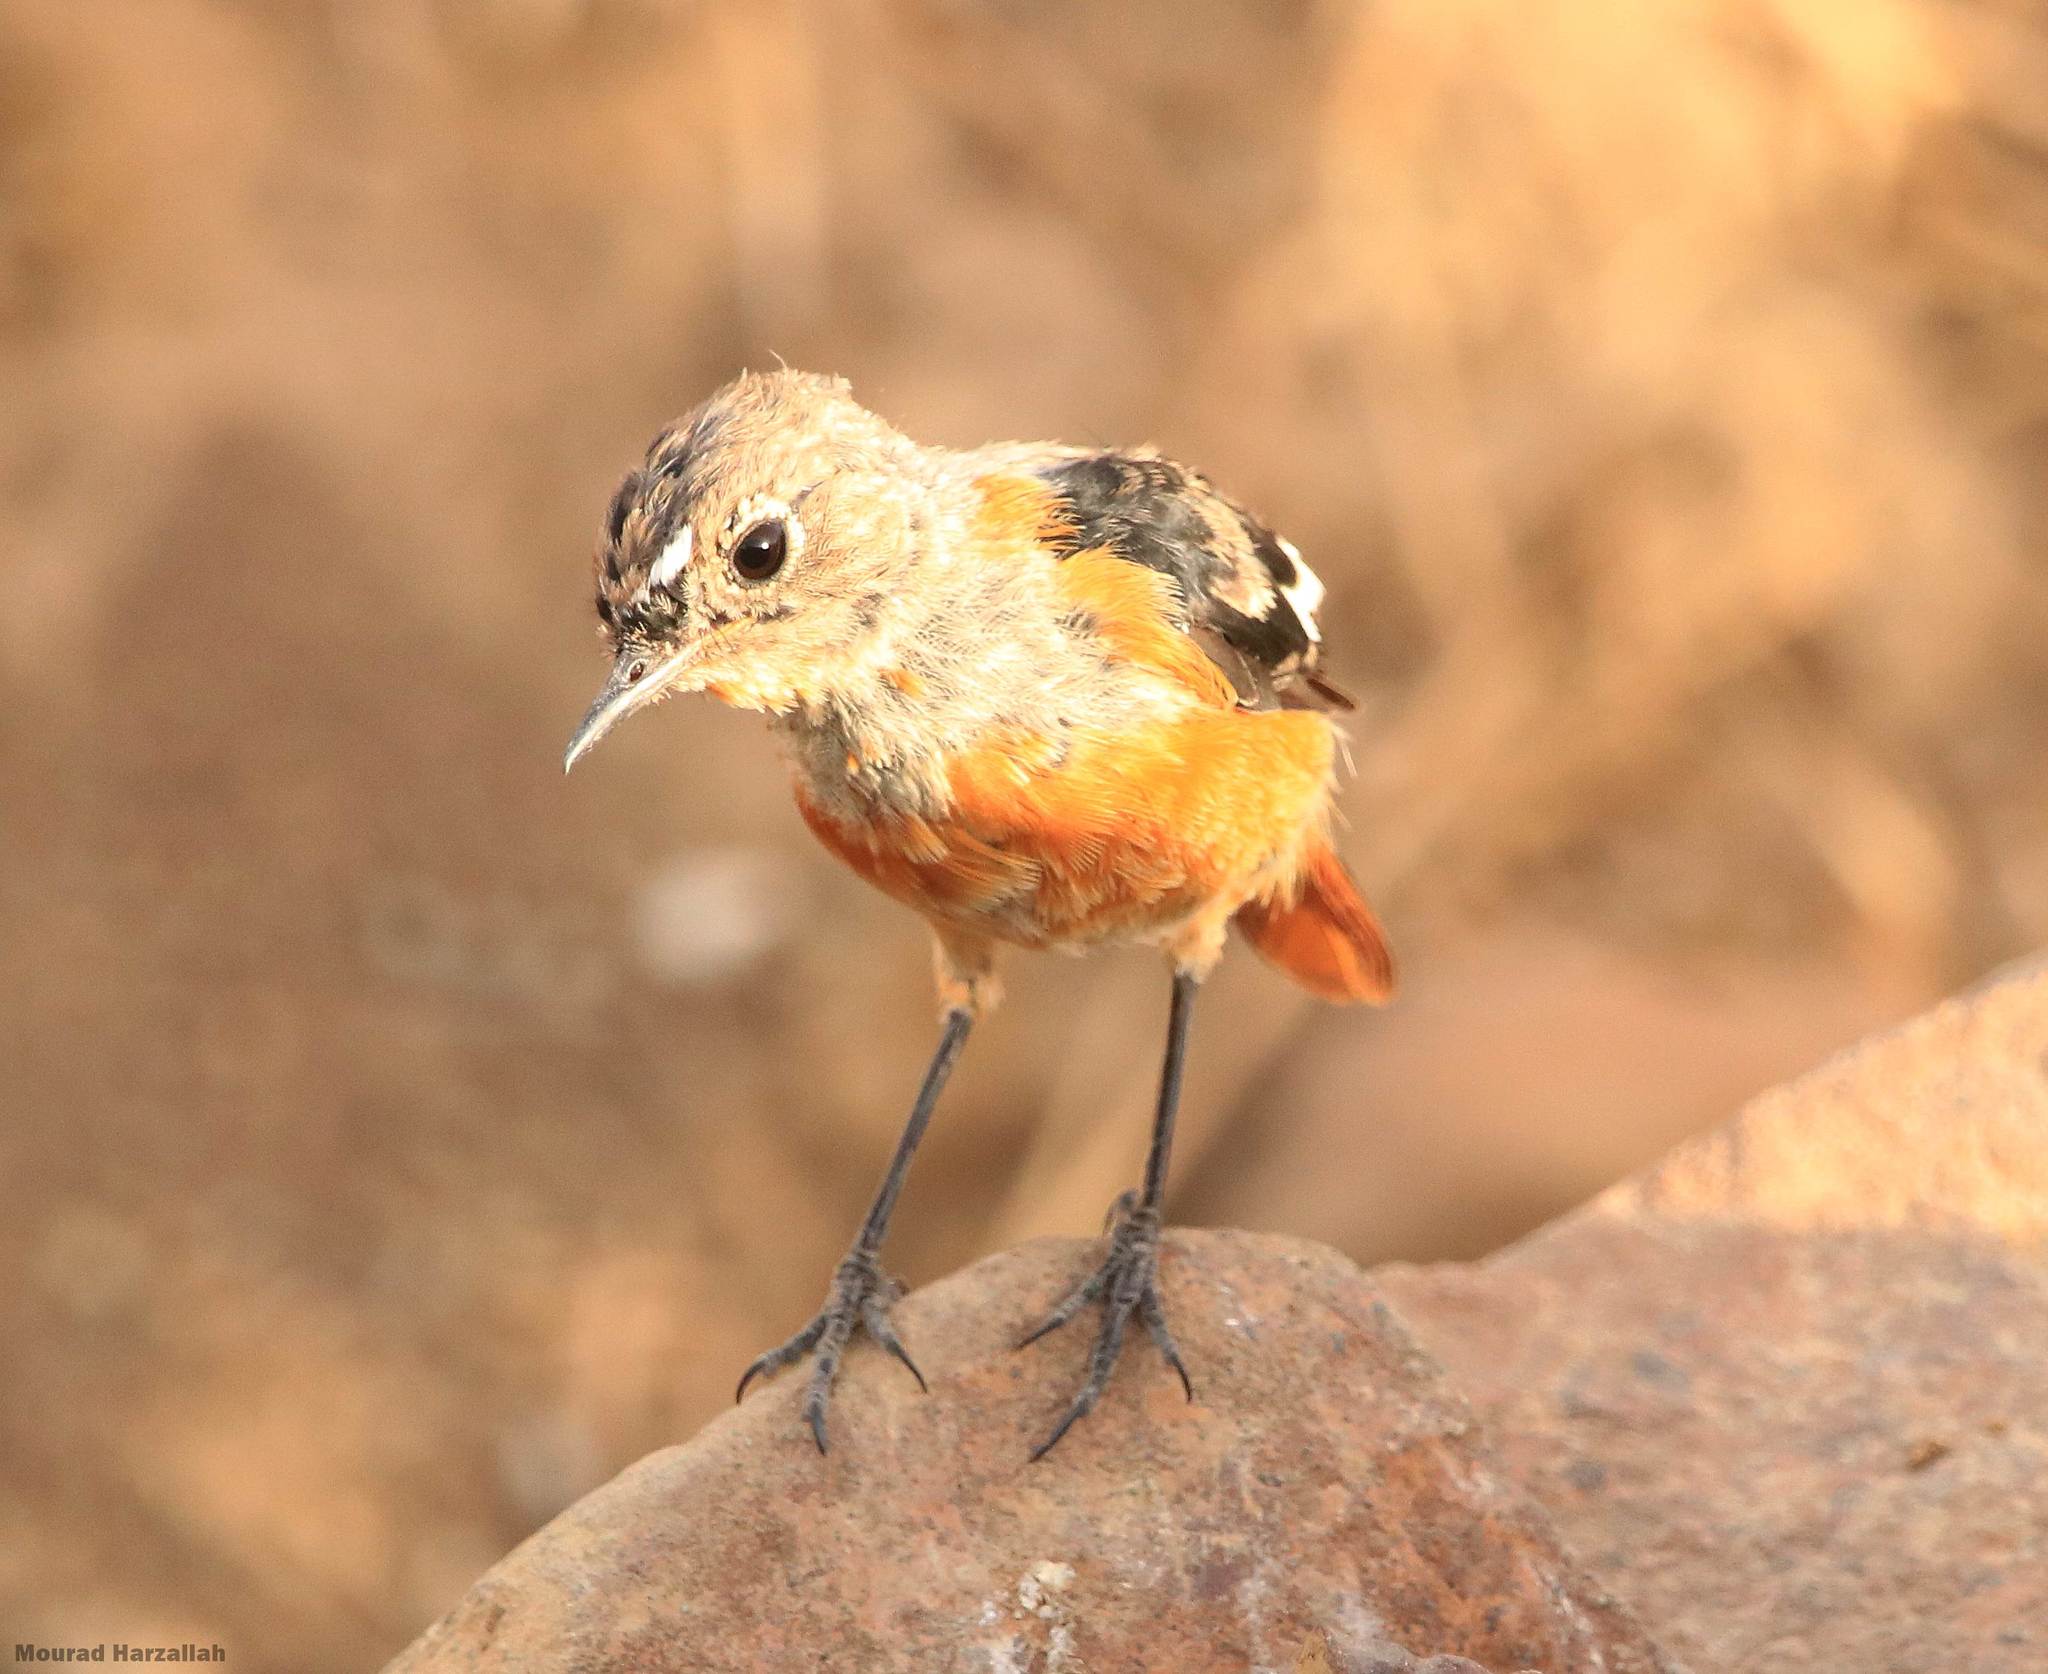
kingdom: Animalia
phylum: Chordata
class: Aves
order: Passeriformes
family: Muscicapidae
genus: Phoenicurus
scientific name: Phoenicurus moussieri
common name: Moussier's redstart
